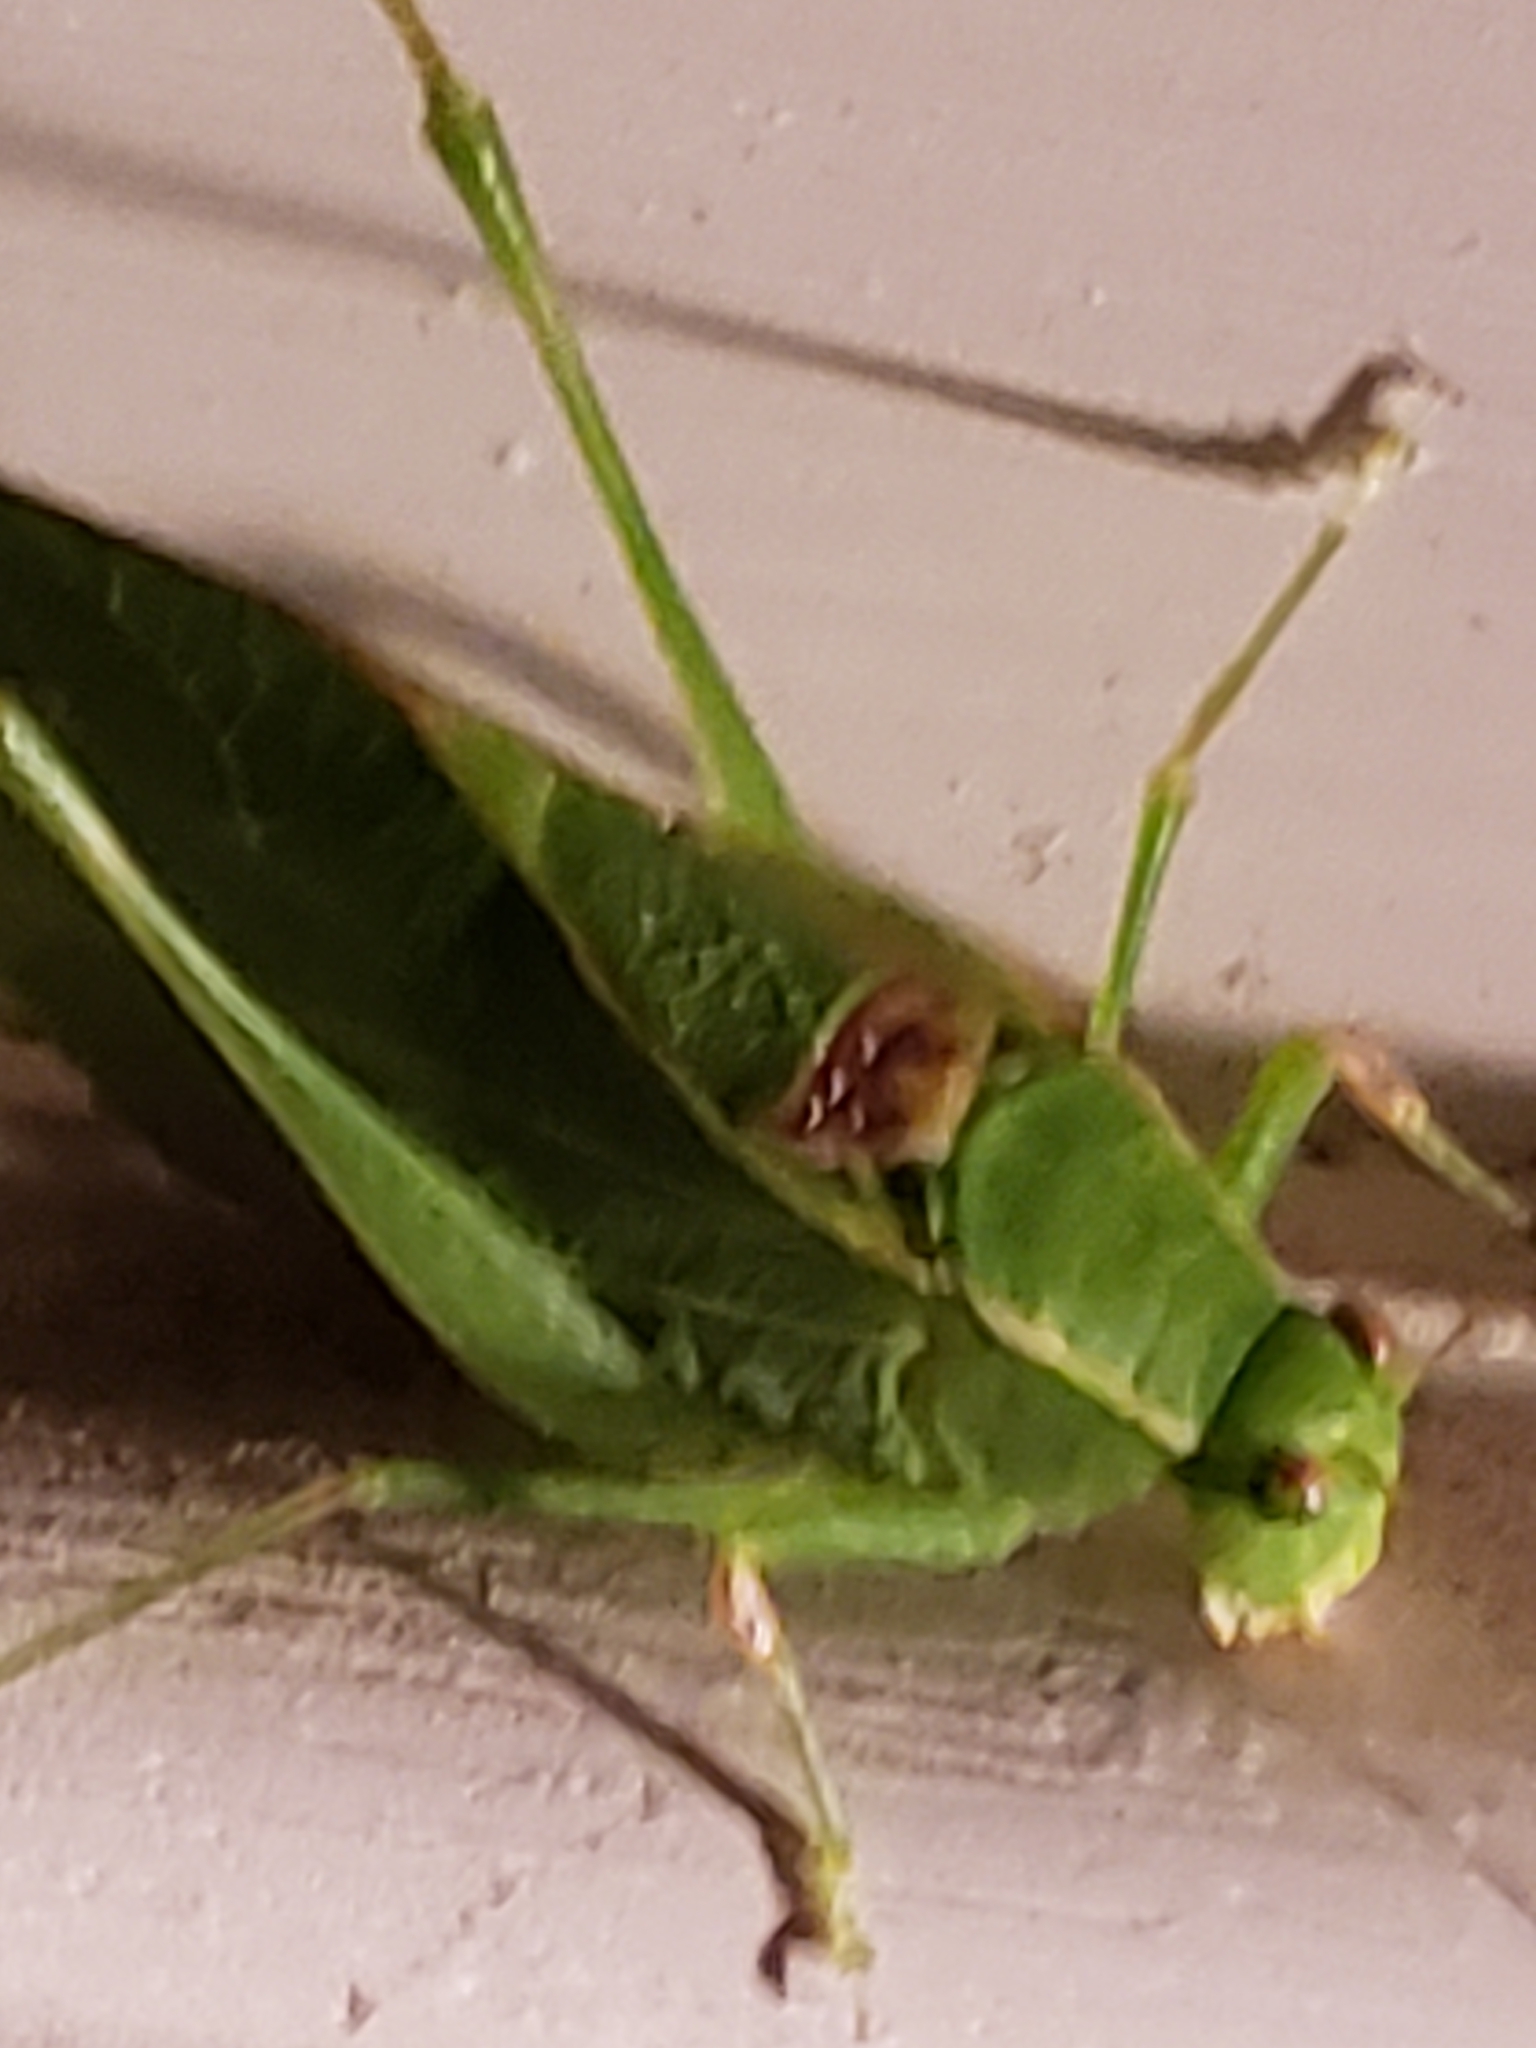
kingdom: Animalia
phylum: Arthropoda
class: Insecta
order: Orthoptera
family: Tettigoniidae
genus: Microcentrum
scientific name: Microcentrum retinerve
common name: Angular-winged katydid
